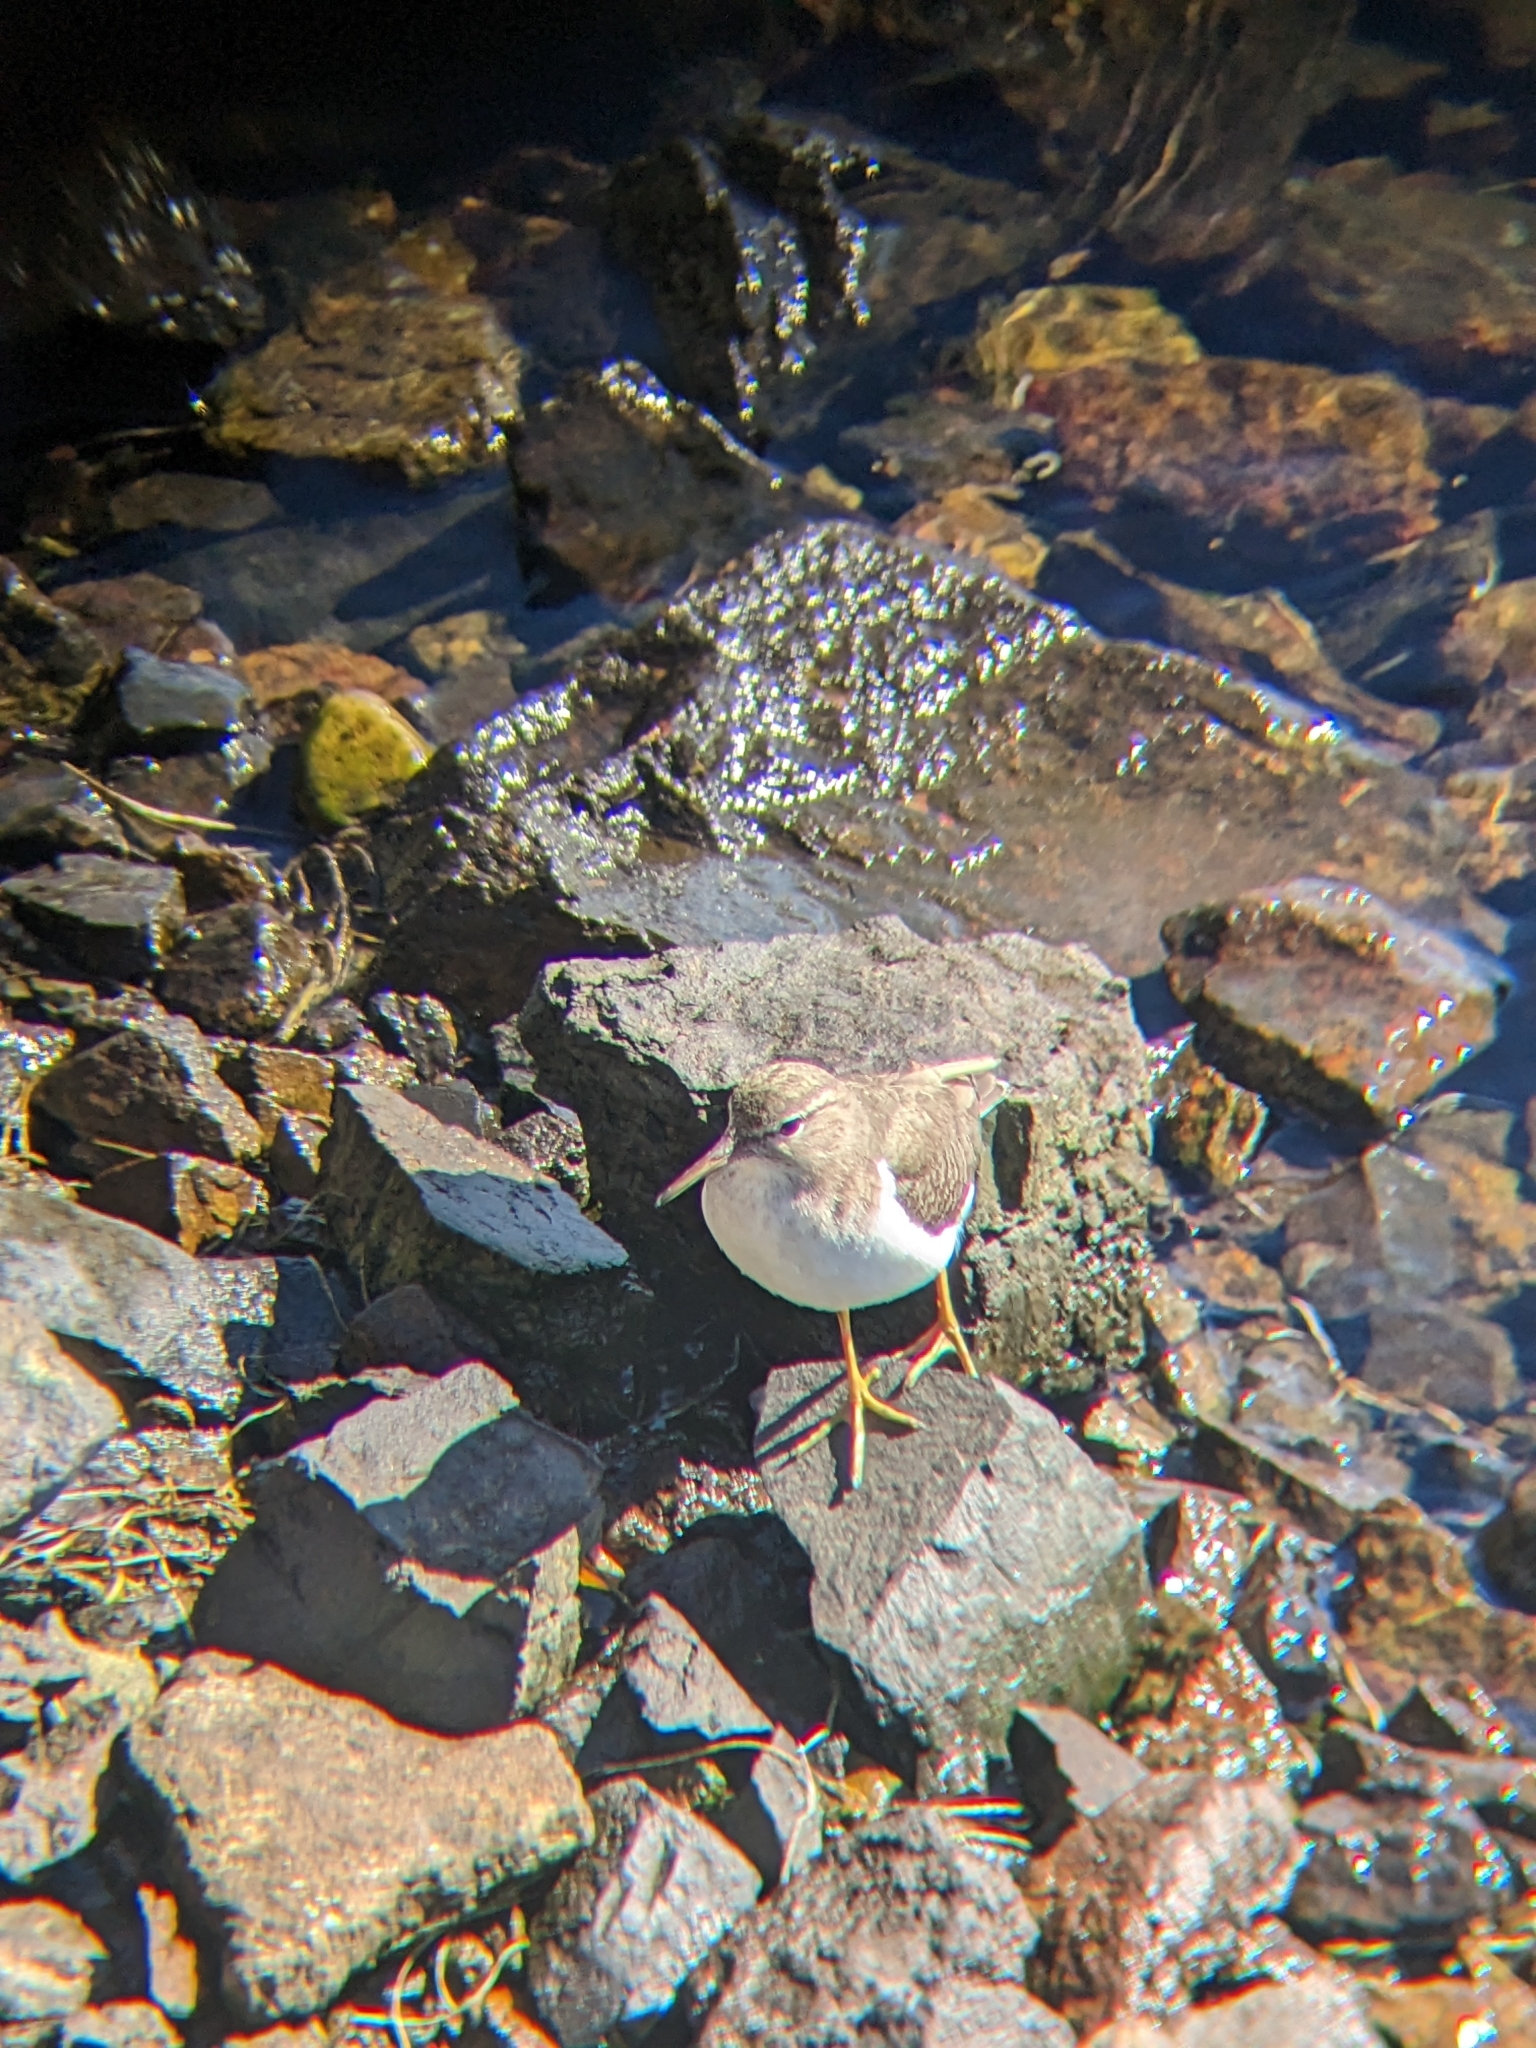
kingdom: Animalia
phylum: Chordata
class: Aves
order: Charadriiformes
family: Scolopacidae
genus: Actitis
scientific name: Actitis macularius
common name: Spotted sandpiper
